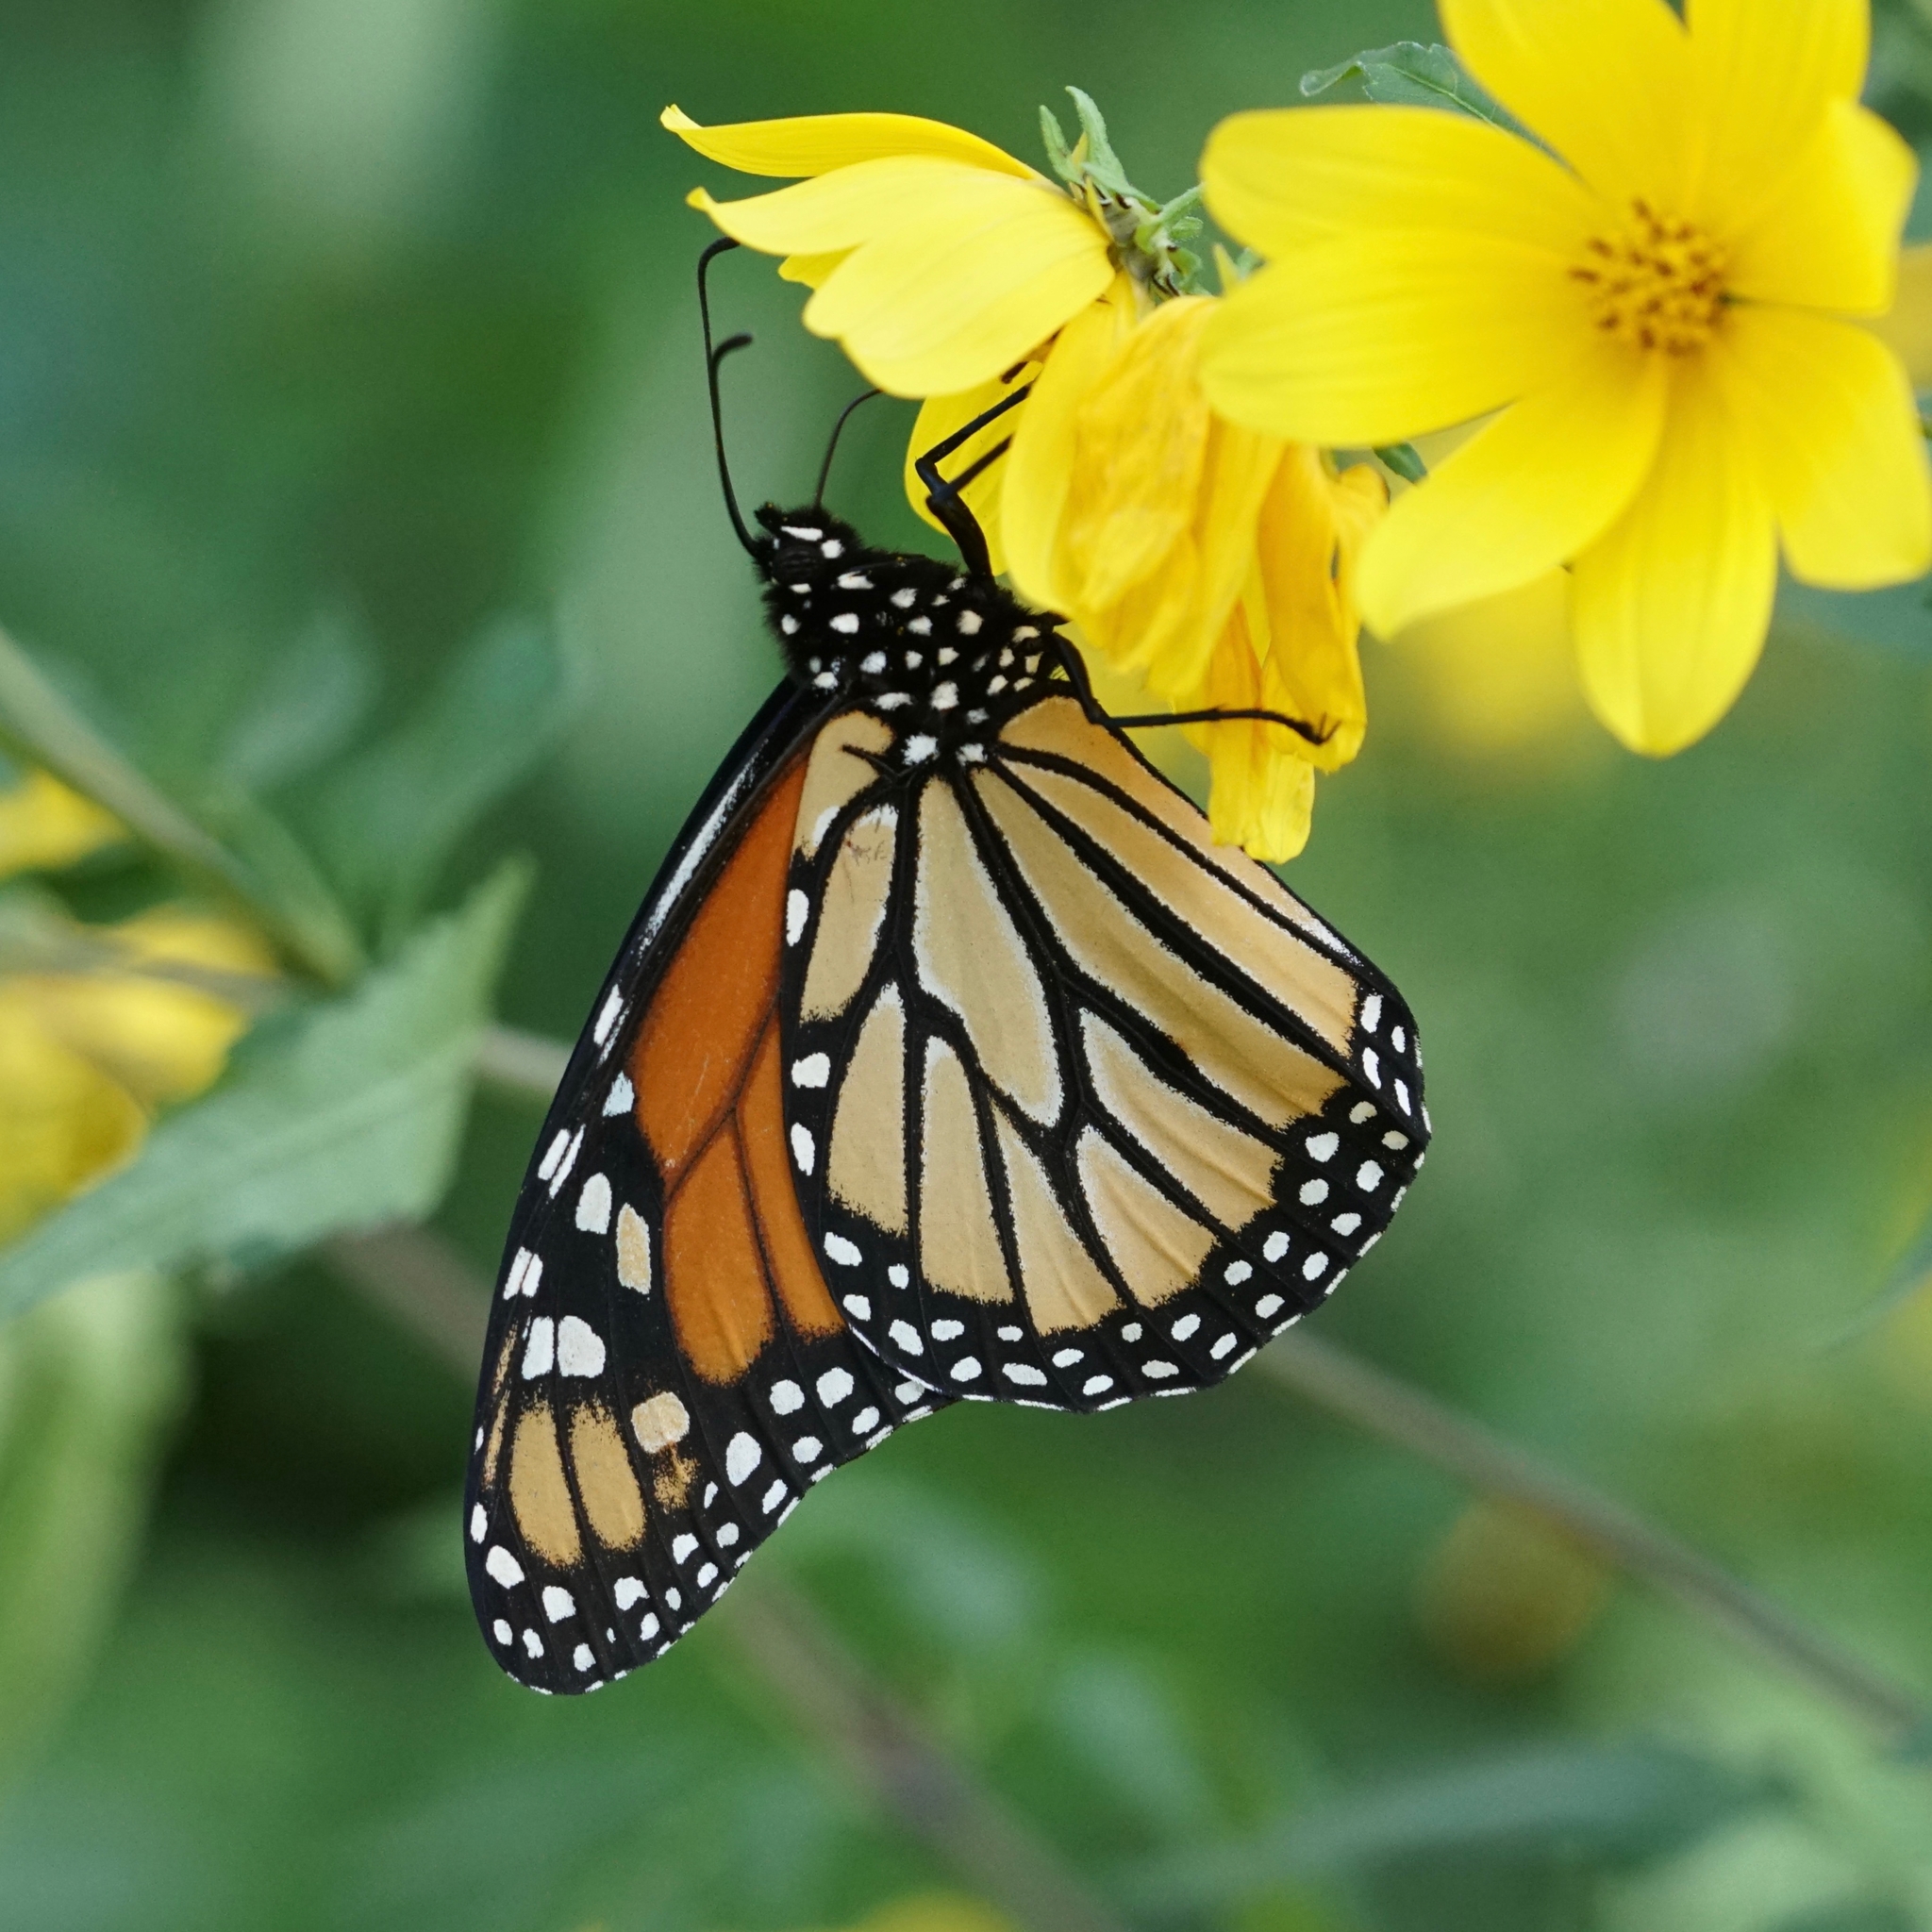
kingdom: Animalia
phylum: Arthropoda
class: Insecta
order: Lepidoptera
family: Nymphalidae
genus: Danaus
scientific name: Danaus plexippus
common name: Monarch
